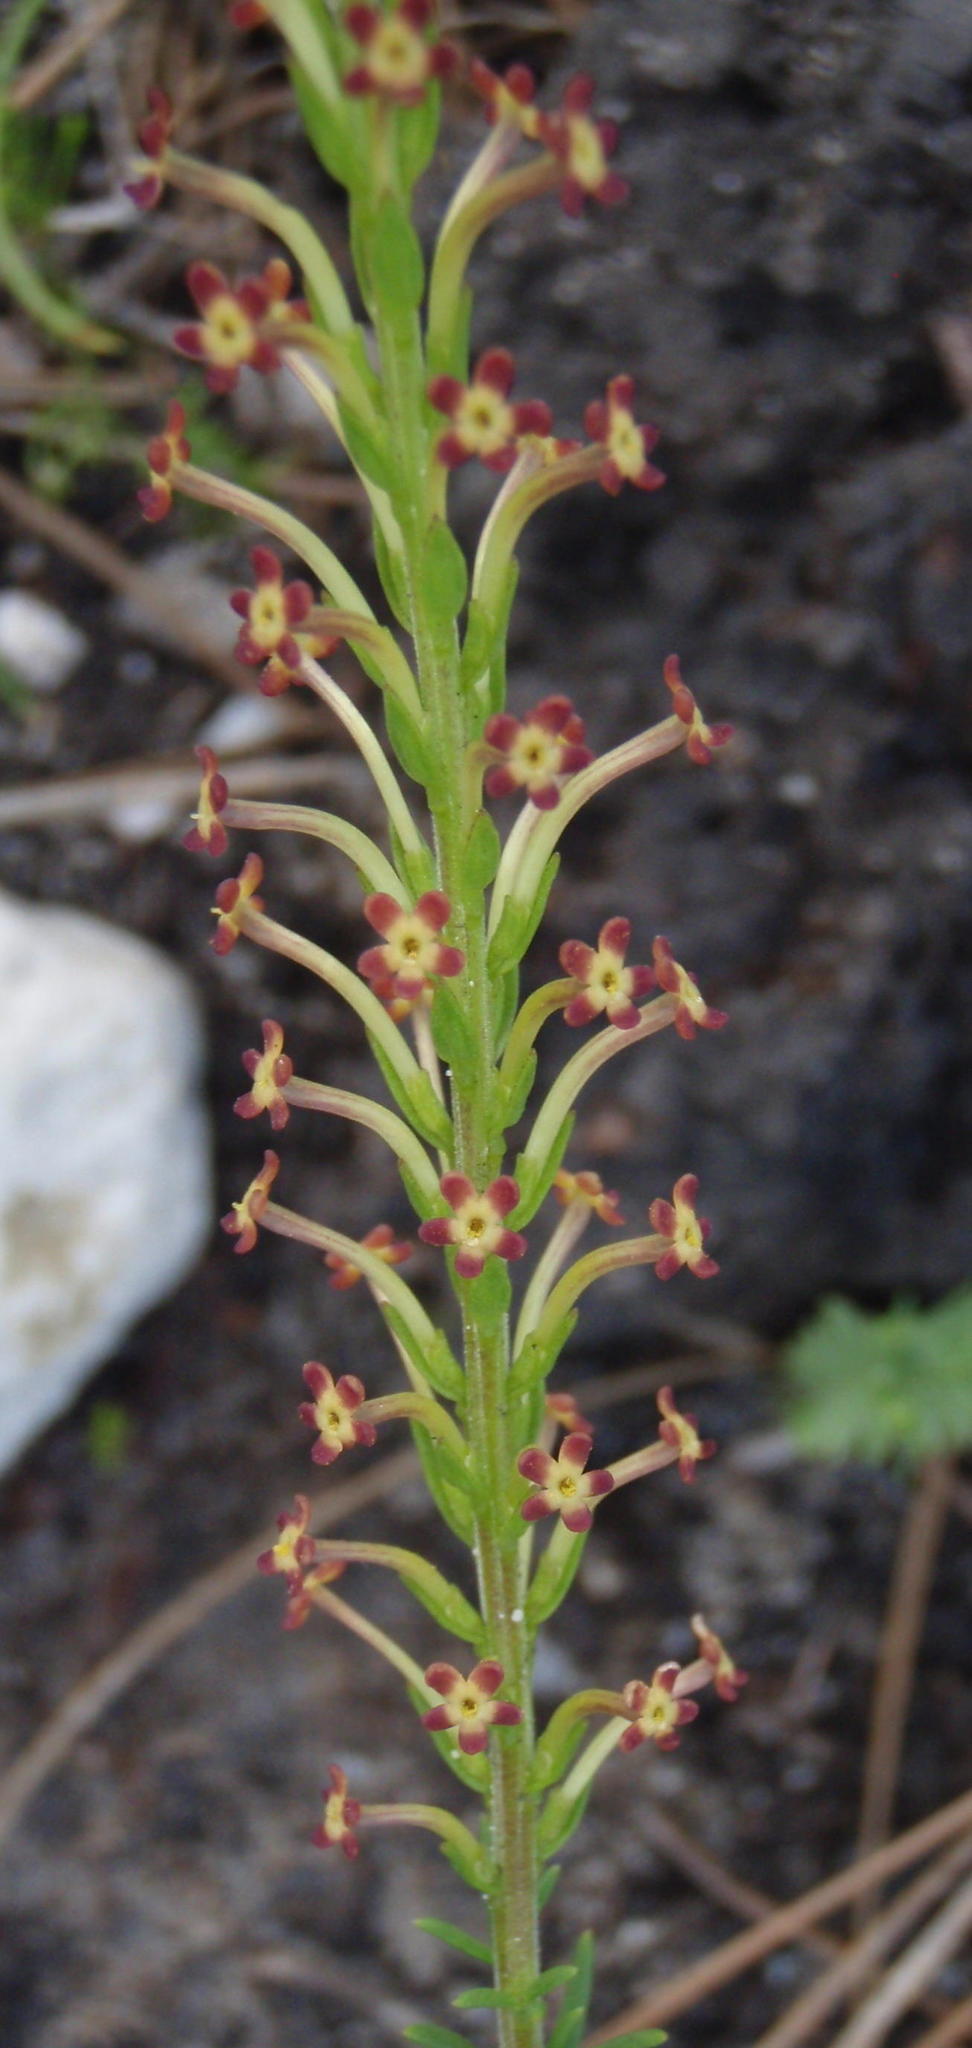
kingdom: Plantae
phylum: Tracheophyta
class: Magnoliopsida
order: Lamiales
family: Scrophulariaceae
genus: Microdon
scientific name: Microdon dubius
